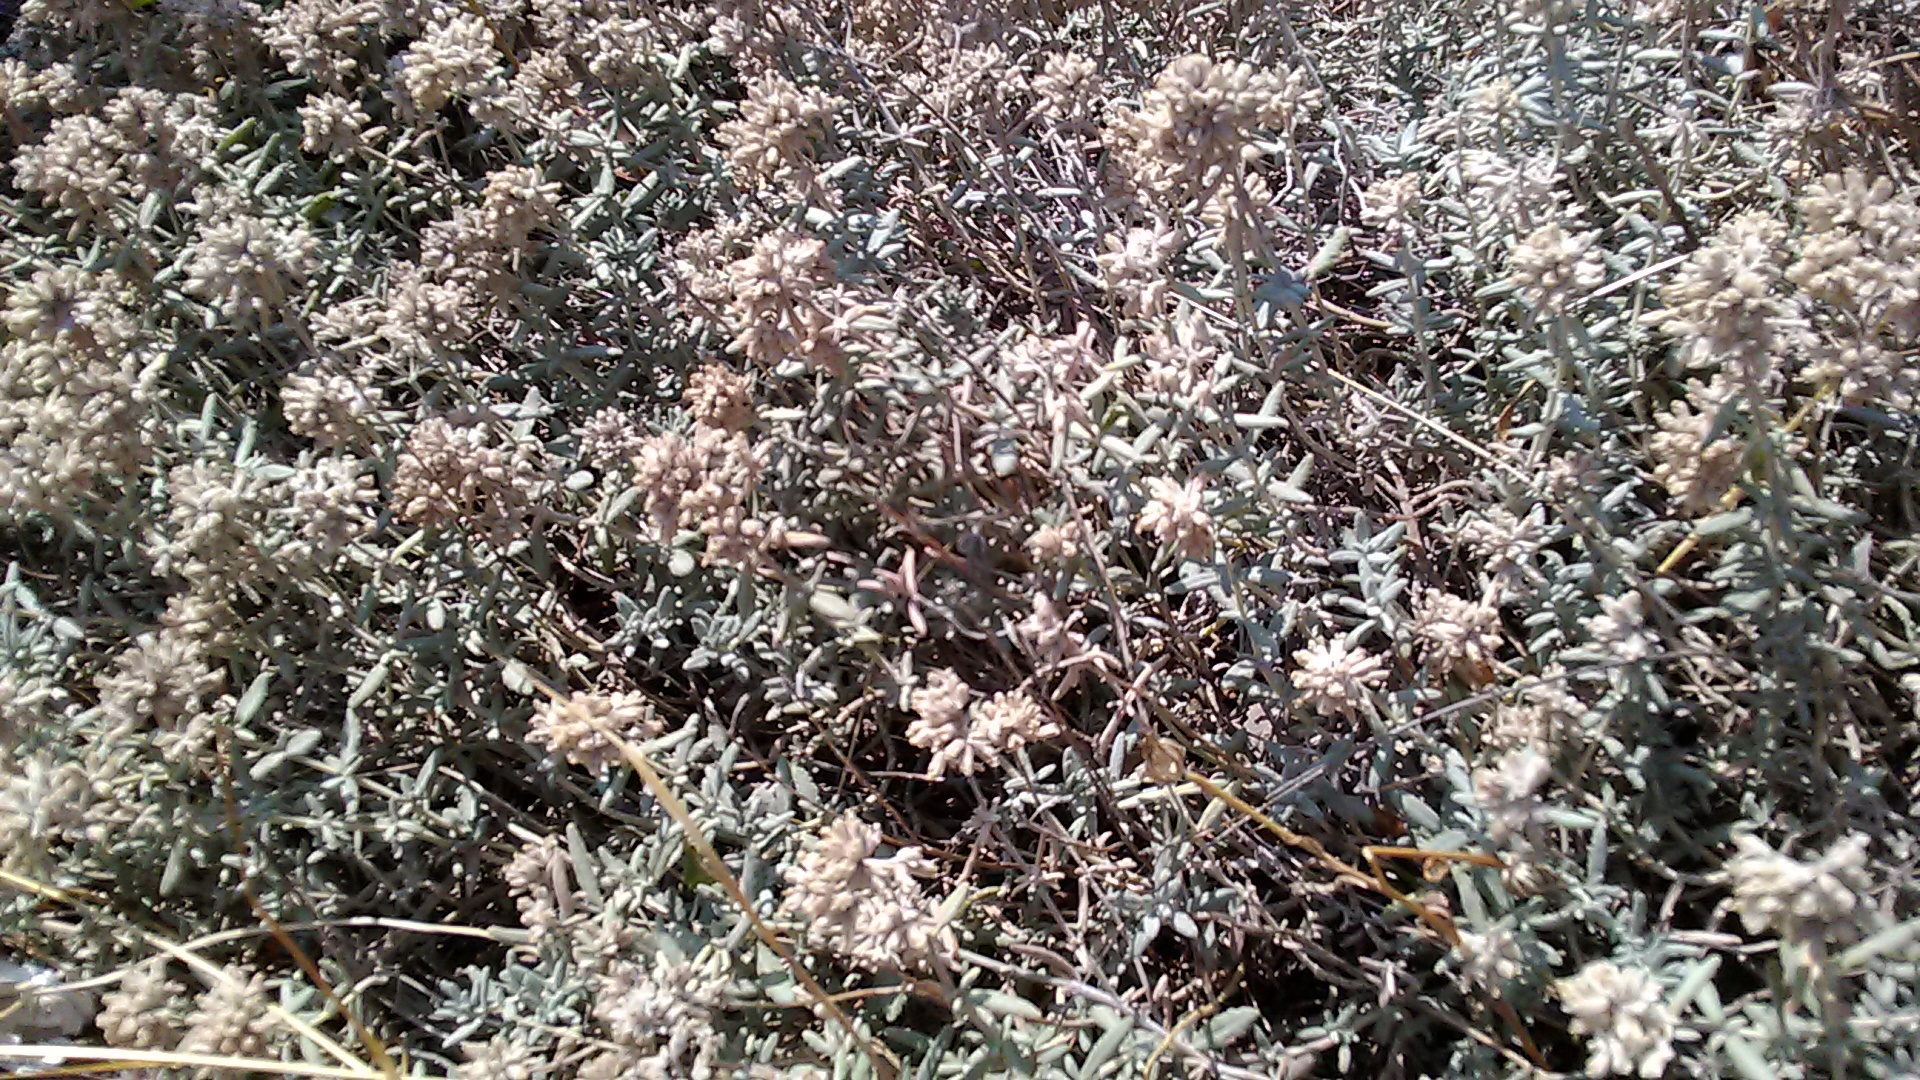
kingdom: Plantae
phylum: Tracheophyta
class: Magnoliopsida
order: Lamiales
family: Lamiaceae
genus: Teucrium
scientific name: Teucrium polium
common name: Poley
